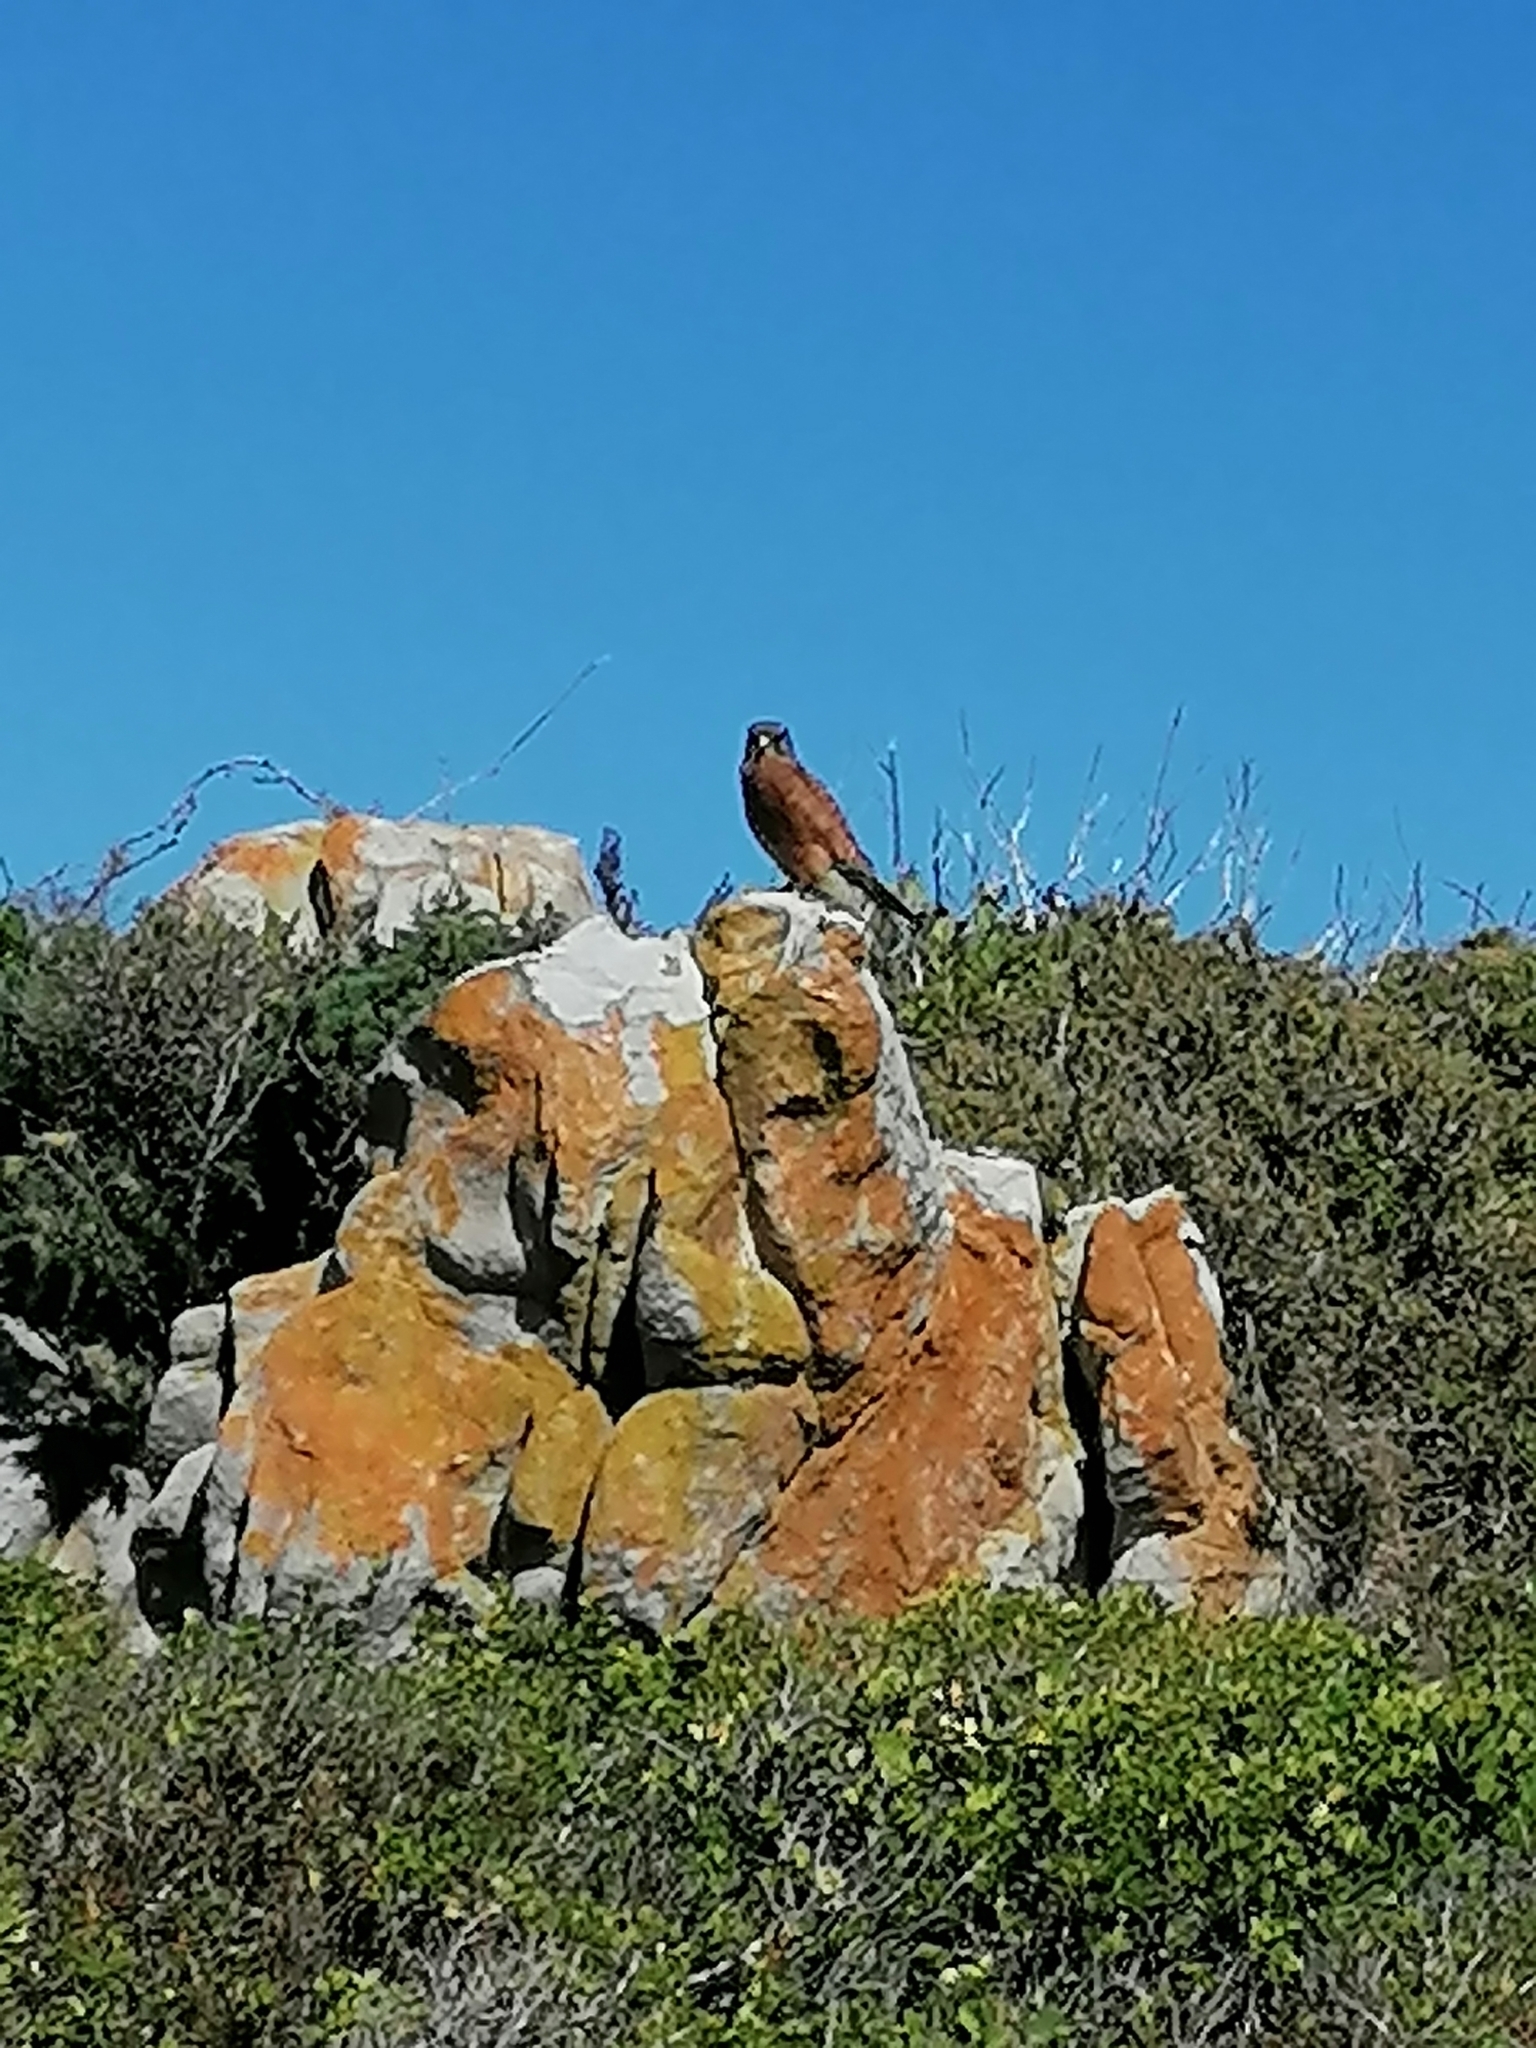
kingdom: Animalia
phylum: Chordata
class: Aves
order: Falconiformes
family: Falconidae
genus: Falco
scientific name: Falco rupicolus
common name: Rock kestrel
